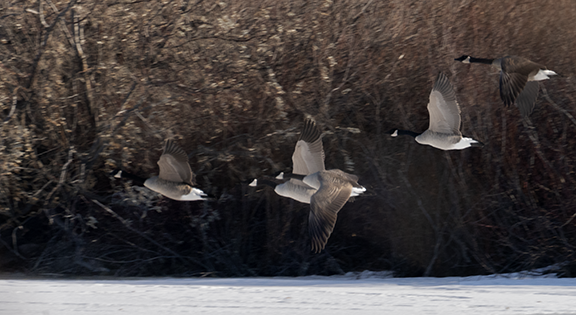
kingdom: Animalia
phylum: Chordata
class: Aves
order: Anseriformes
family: Anatidae
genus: Branta
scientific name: Branta canadensis
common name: Canada goose
